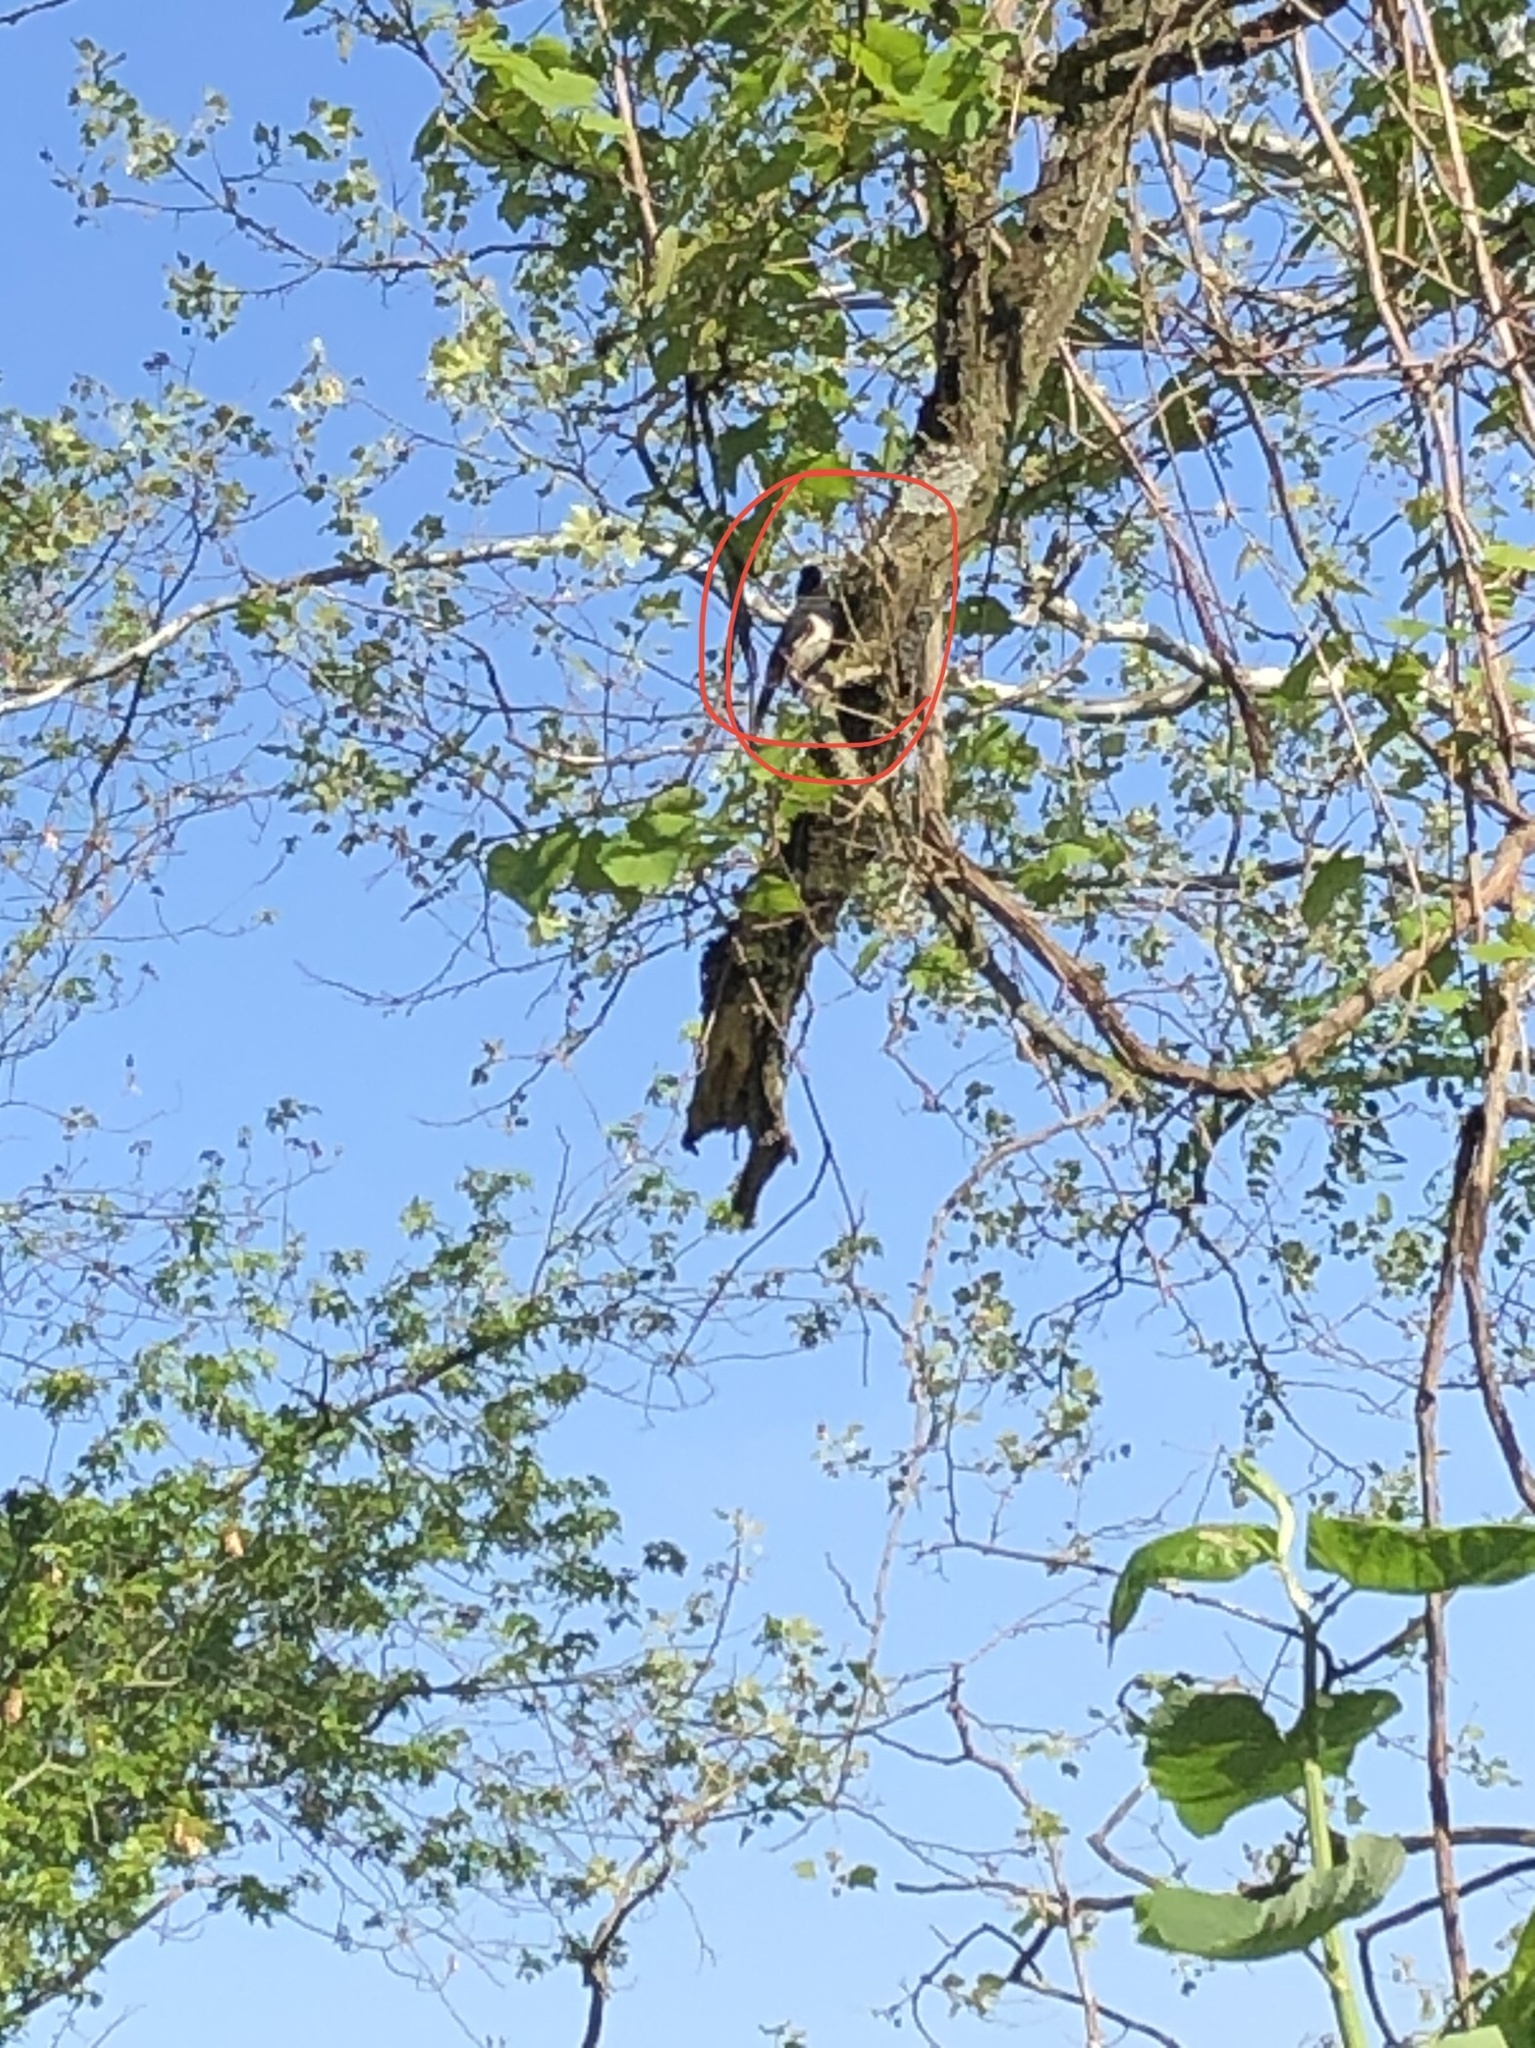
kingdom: Animalia
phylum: Chordata
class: Aves
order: Passeriformes
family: Passerellidae
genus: Pipilo
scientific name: Pipilo erythrophthalmus
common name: Eastern towhee
